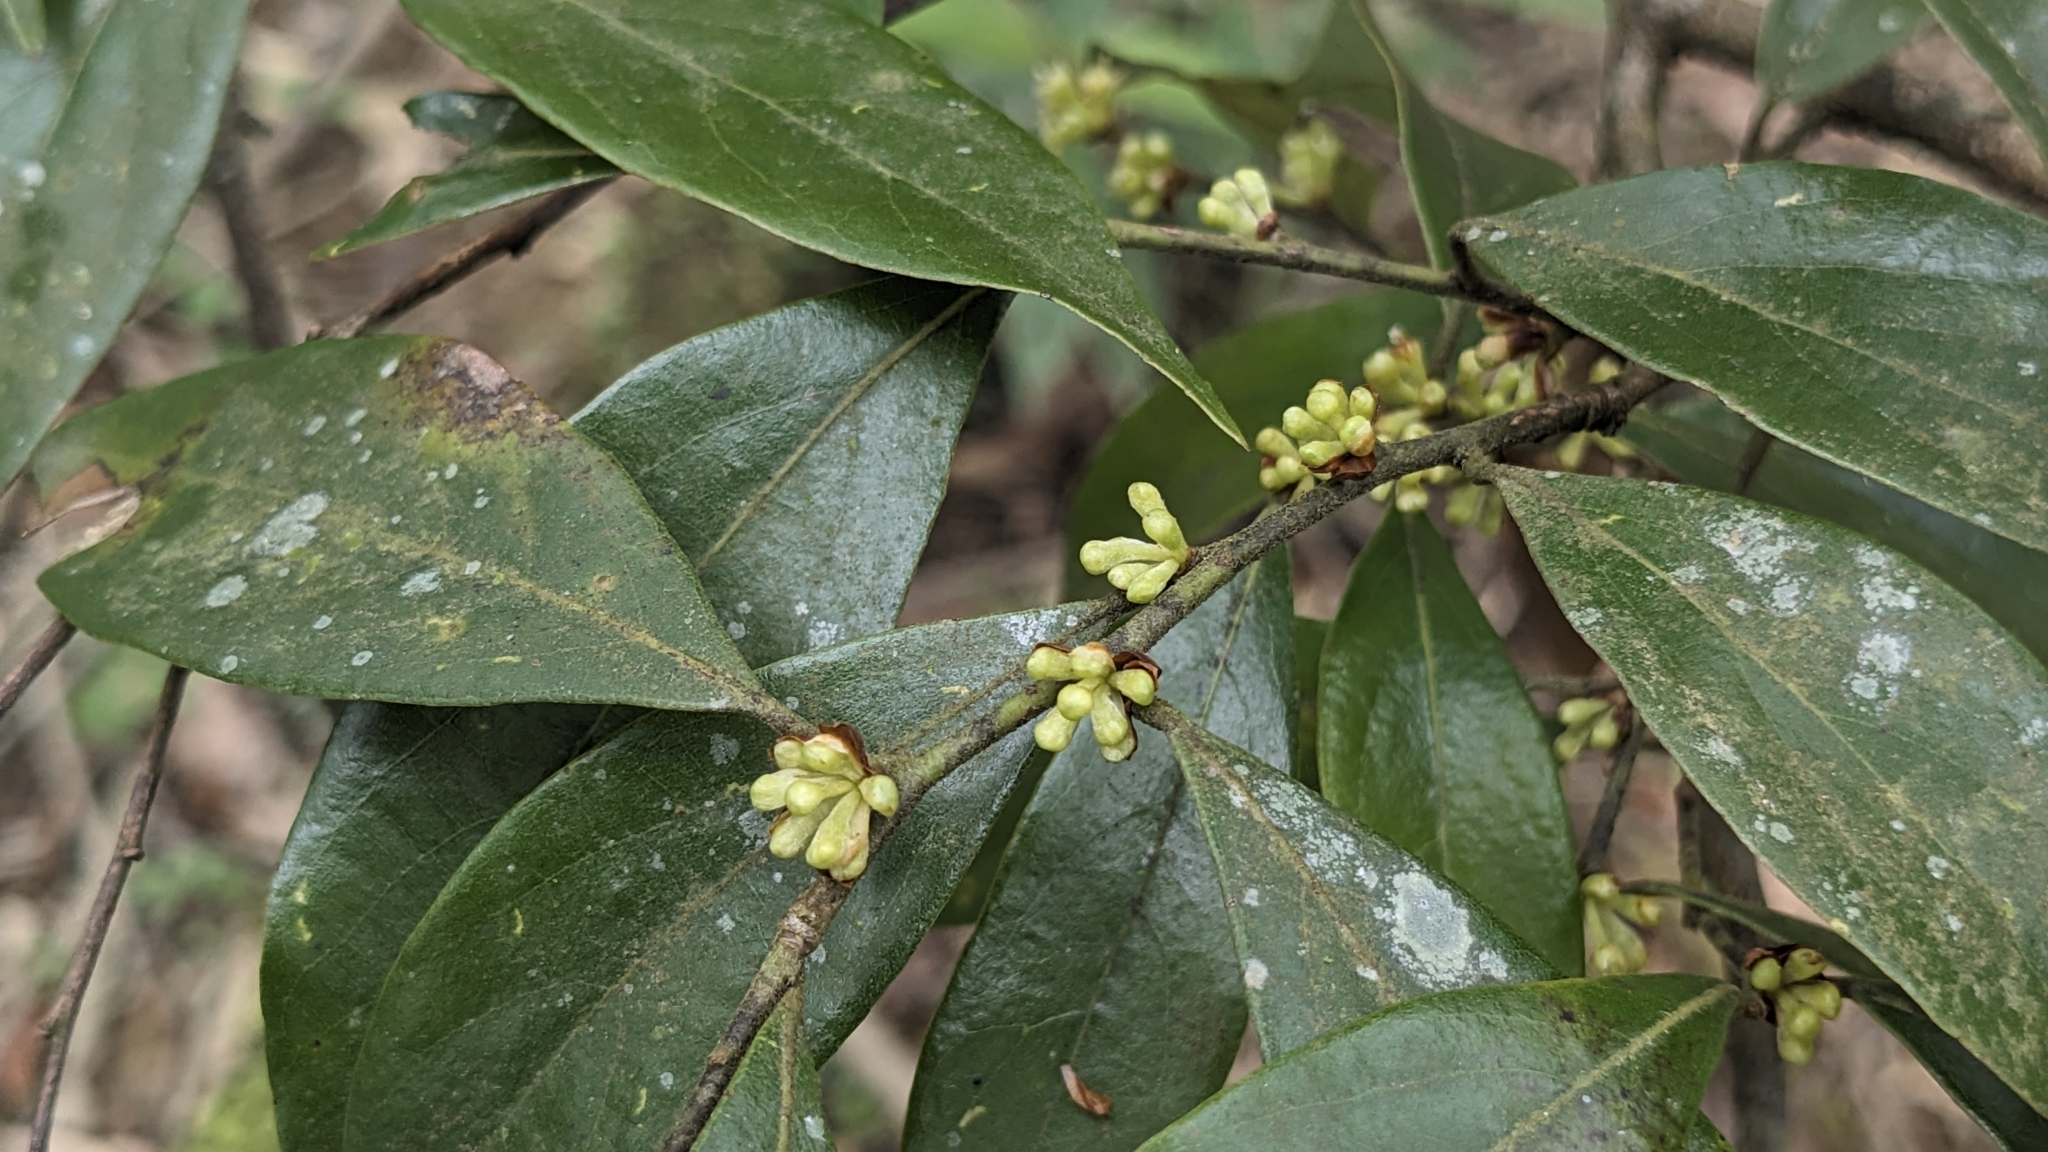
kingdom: Plantae
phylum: Tracheophyta
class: Magnoliopsida
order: Laurales
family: Lauraceae
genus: Lindera
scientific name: Lindera communis
